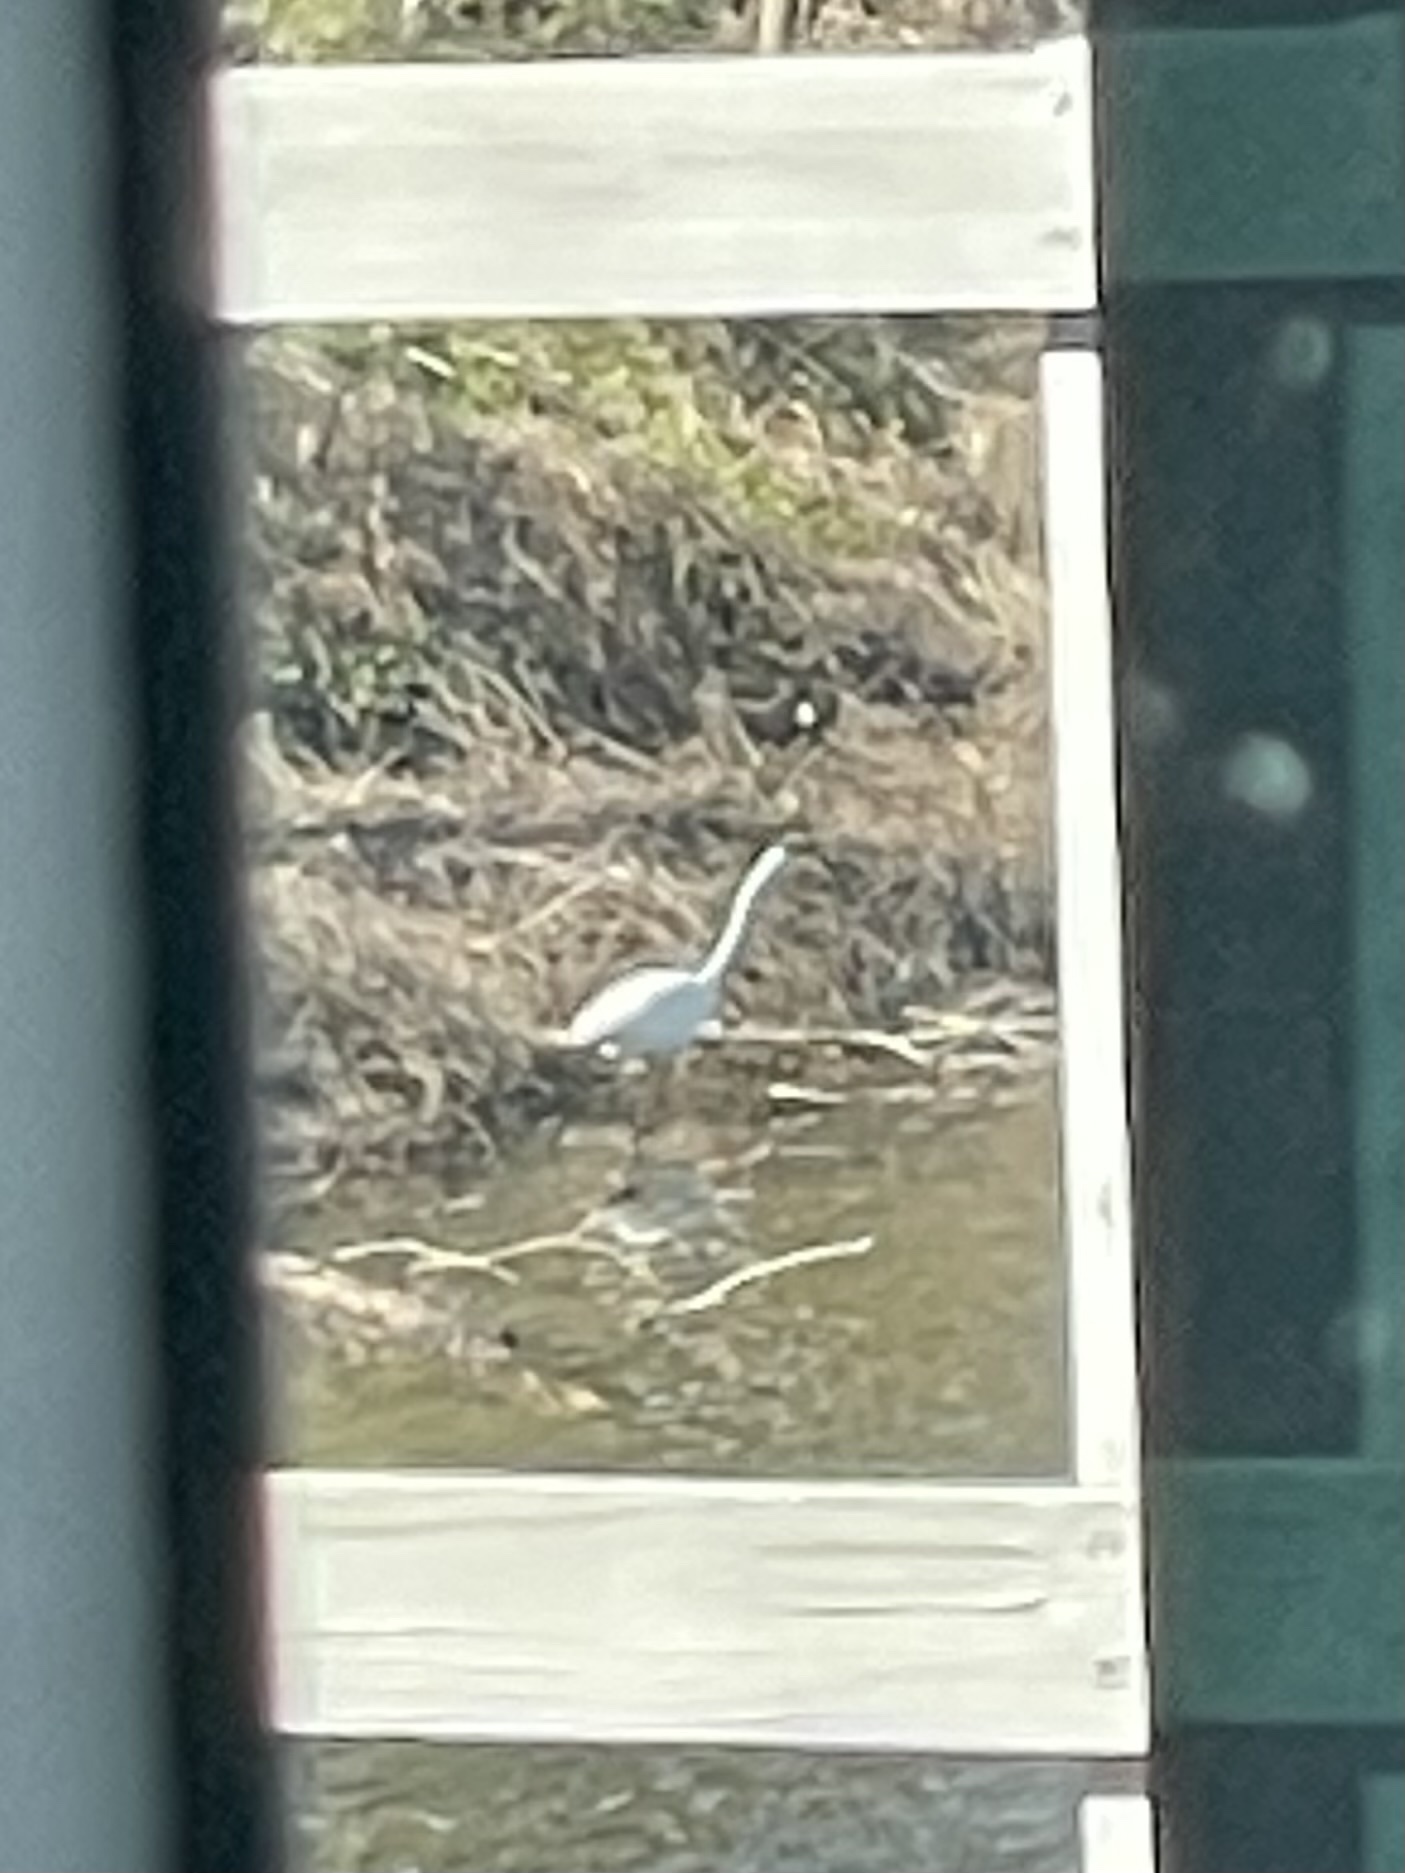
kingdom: Animalia
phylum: Chordata
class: Aves
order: Pelecaniformes
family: Ardeidae
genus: Ardea
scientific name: Ardea alba
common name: Great egret
